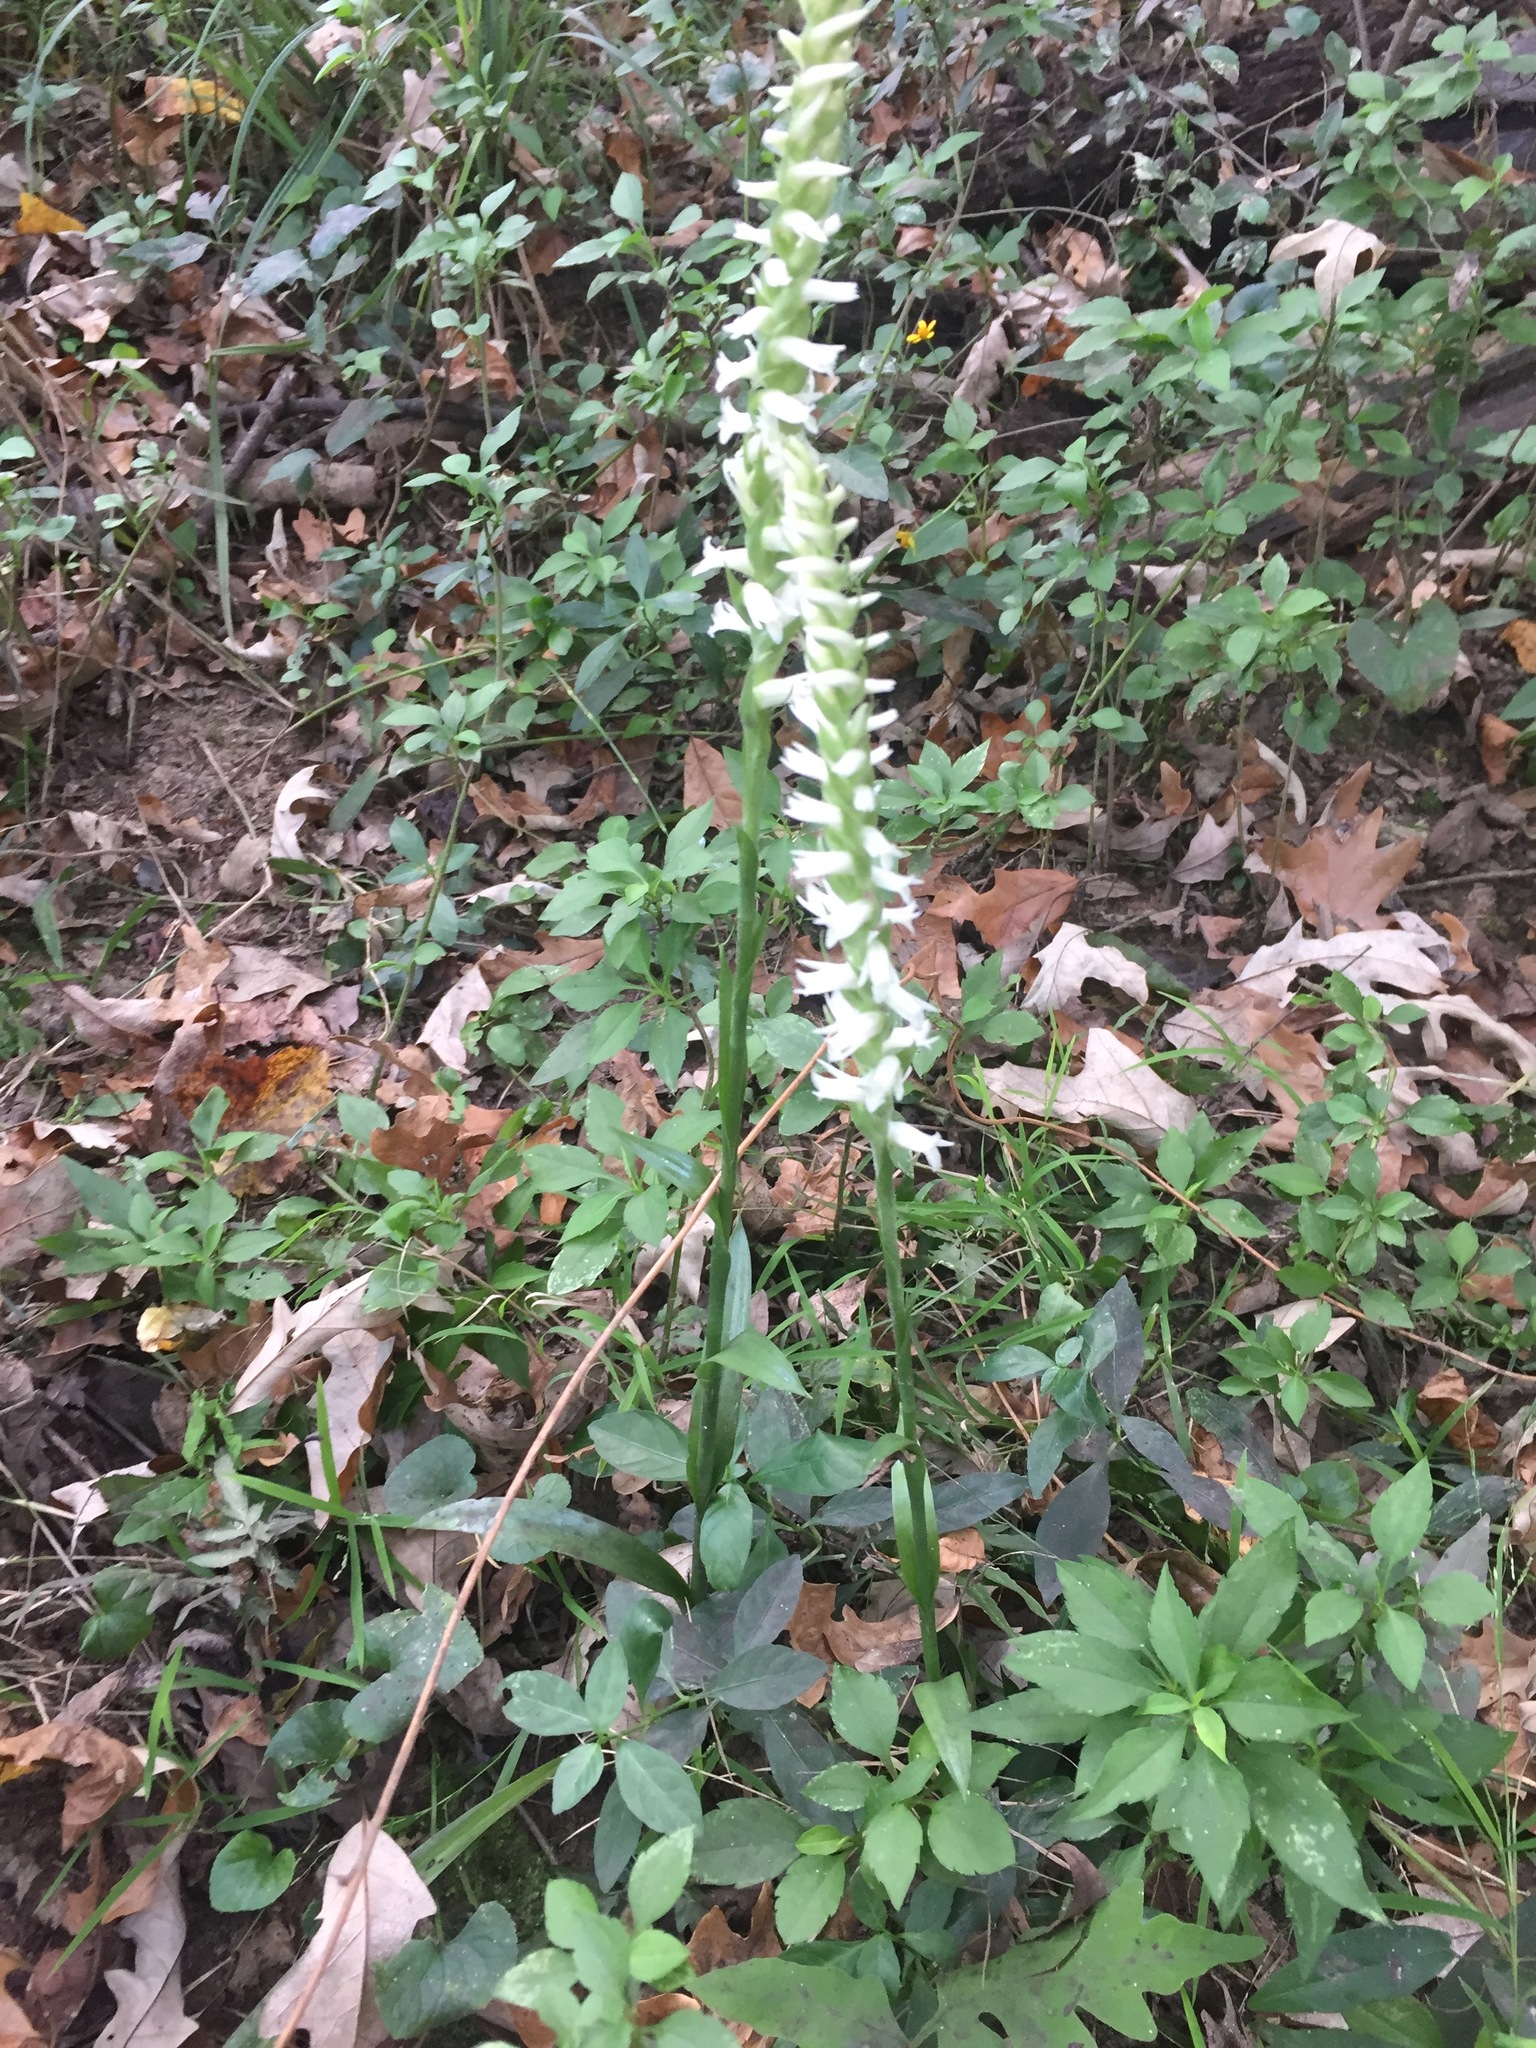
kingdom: Plantae
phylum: Tracheophyta
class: Liliopsida
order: Asparagales
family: Orchidaceae
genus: Spiranthes
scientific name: Spiranthes odorata
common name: Marsh ladies'-tresses
